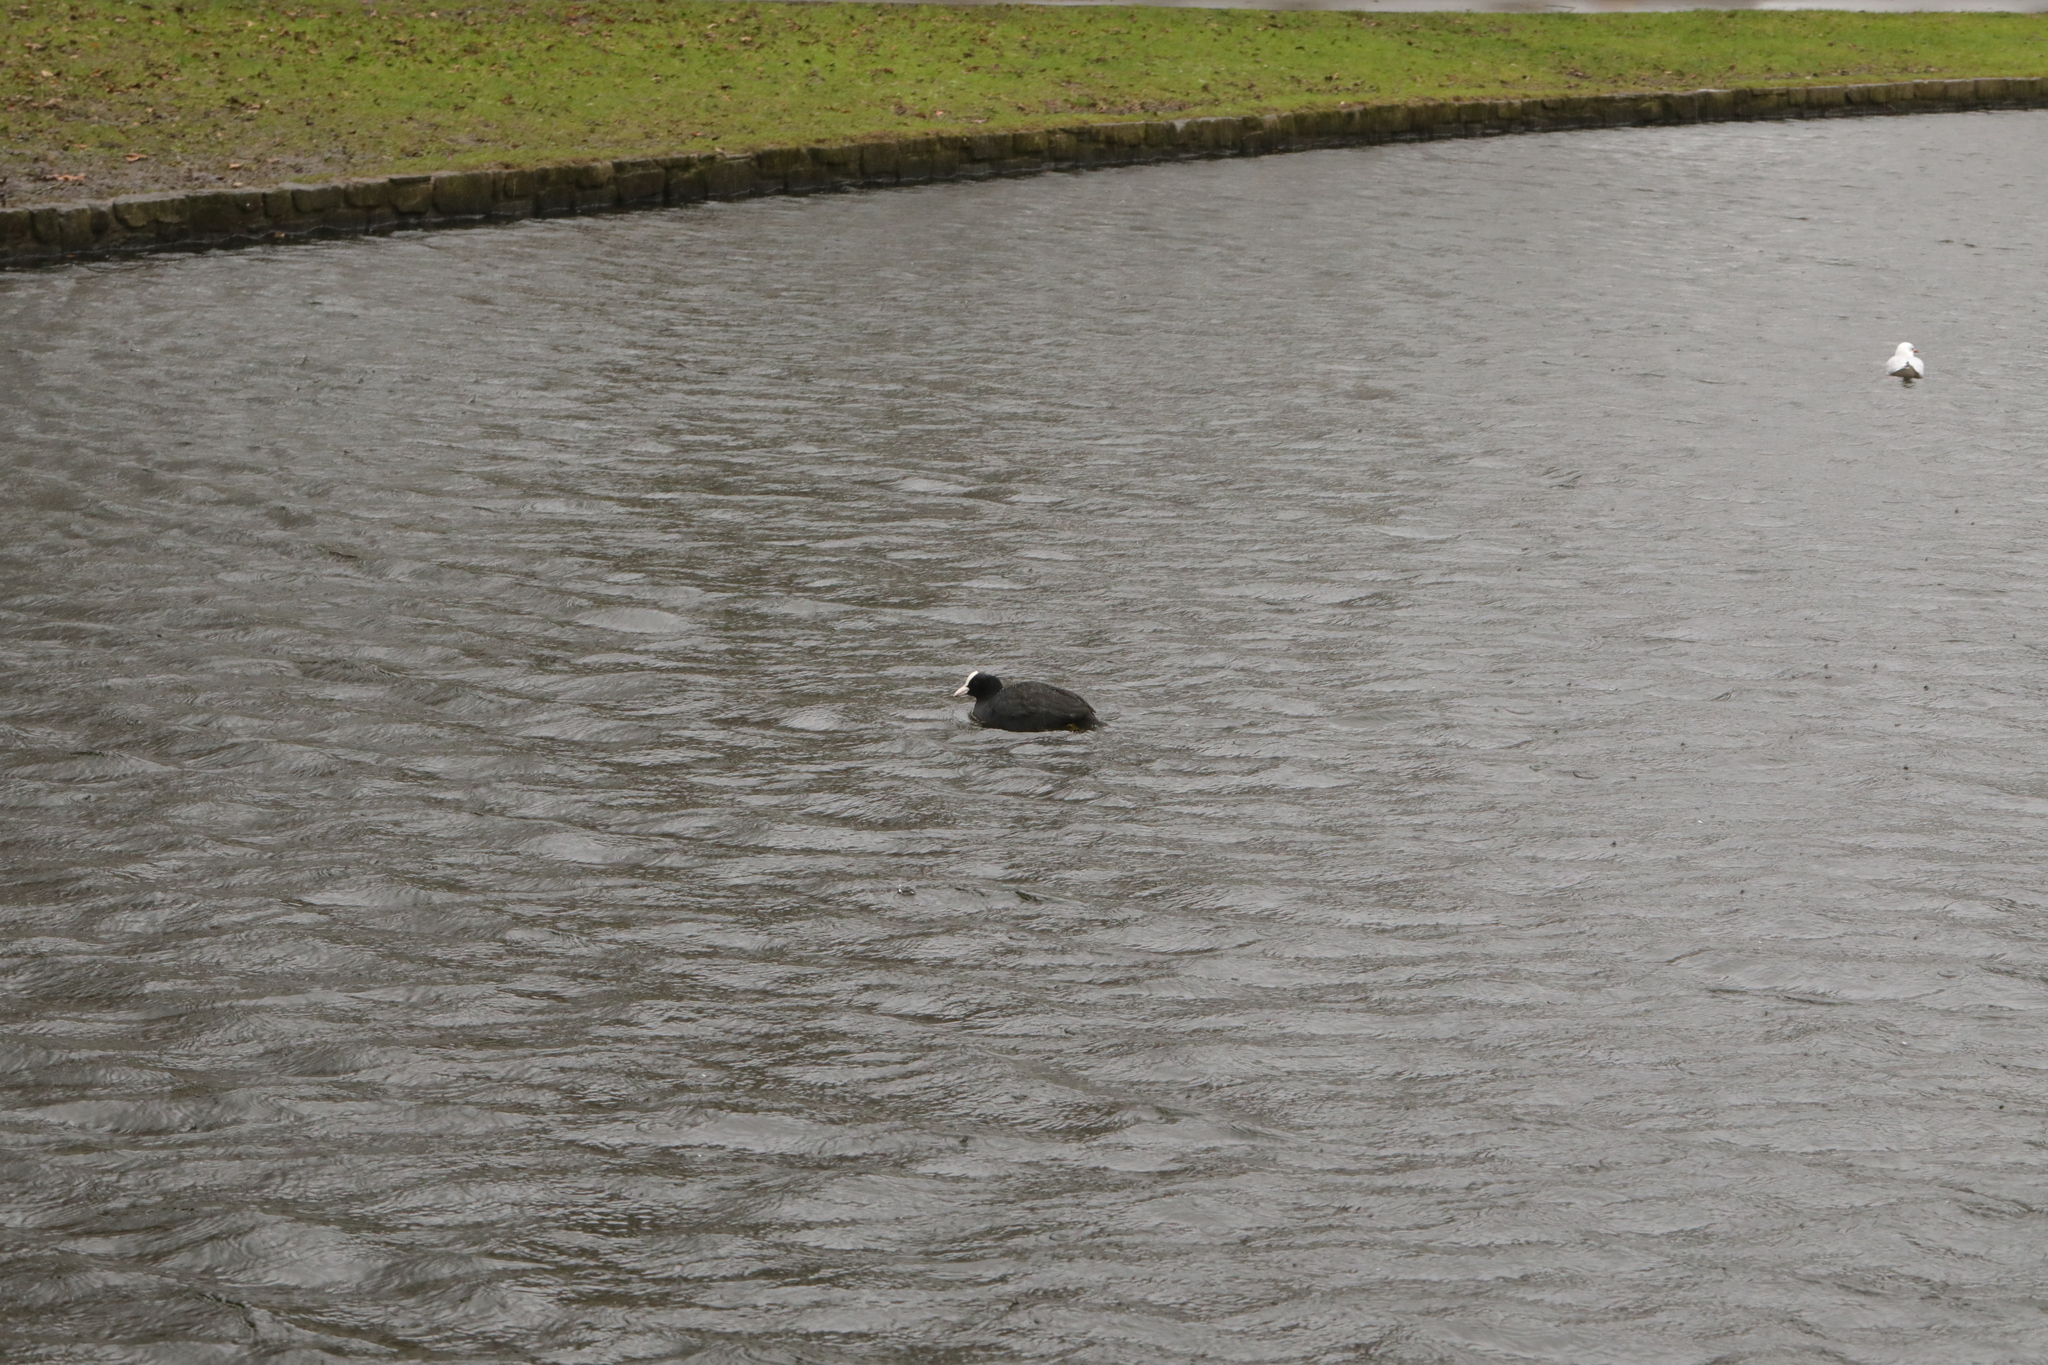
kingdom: Animalia
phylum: Chordata
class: Aves
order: Gruiformes
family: Rallidae
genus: Fulica
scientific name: Fulica atra
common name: Eurasian coot
